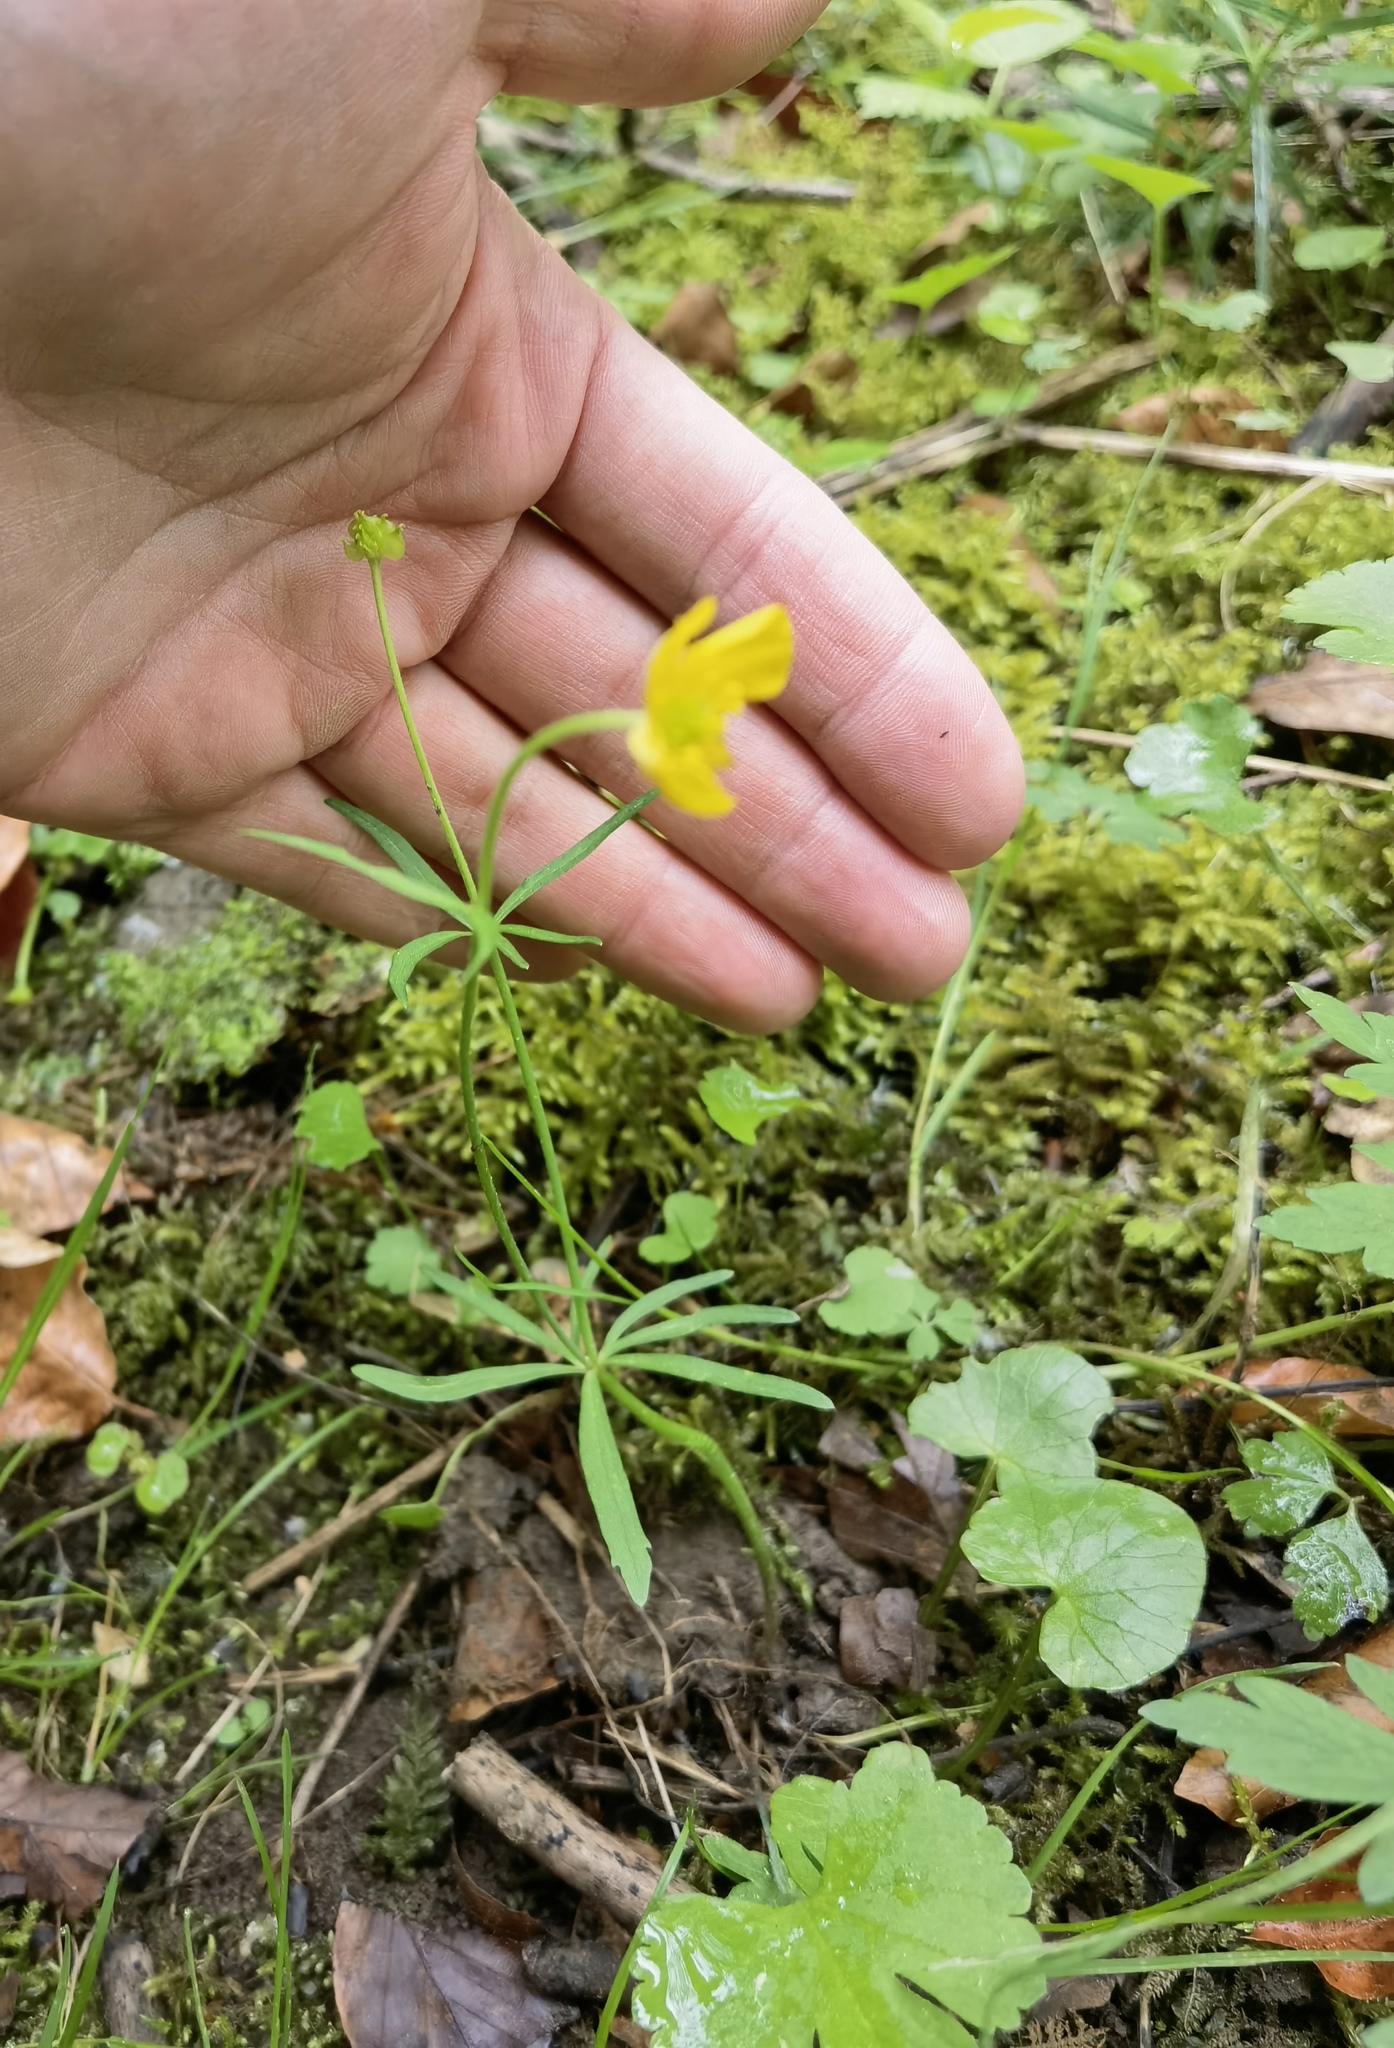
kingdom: Plantae
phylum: Tracheophyta
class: Magnoliopsida
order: Ranunculales
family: Ranunculaceae
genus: Ranunculus
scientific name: Ranunculus auricomus
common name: Goldilocks buttercup
